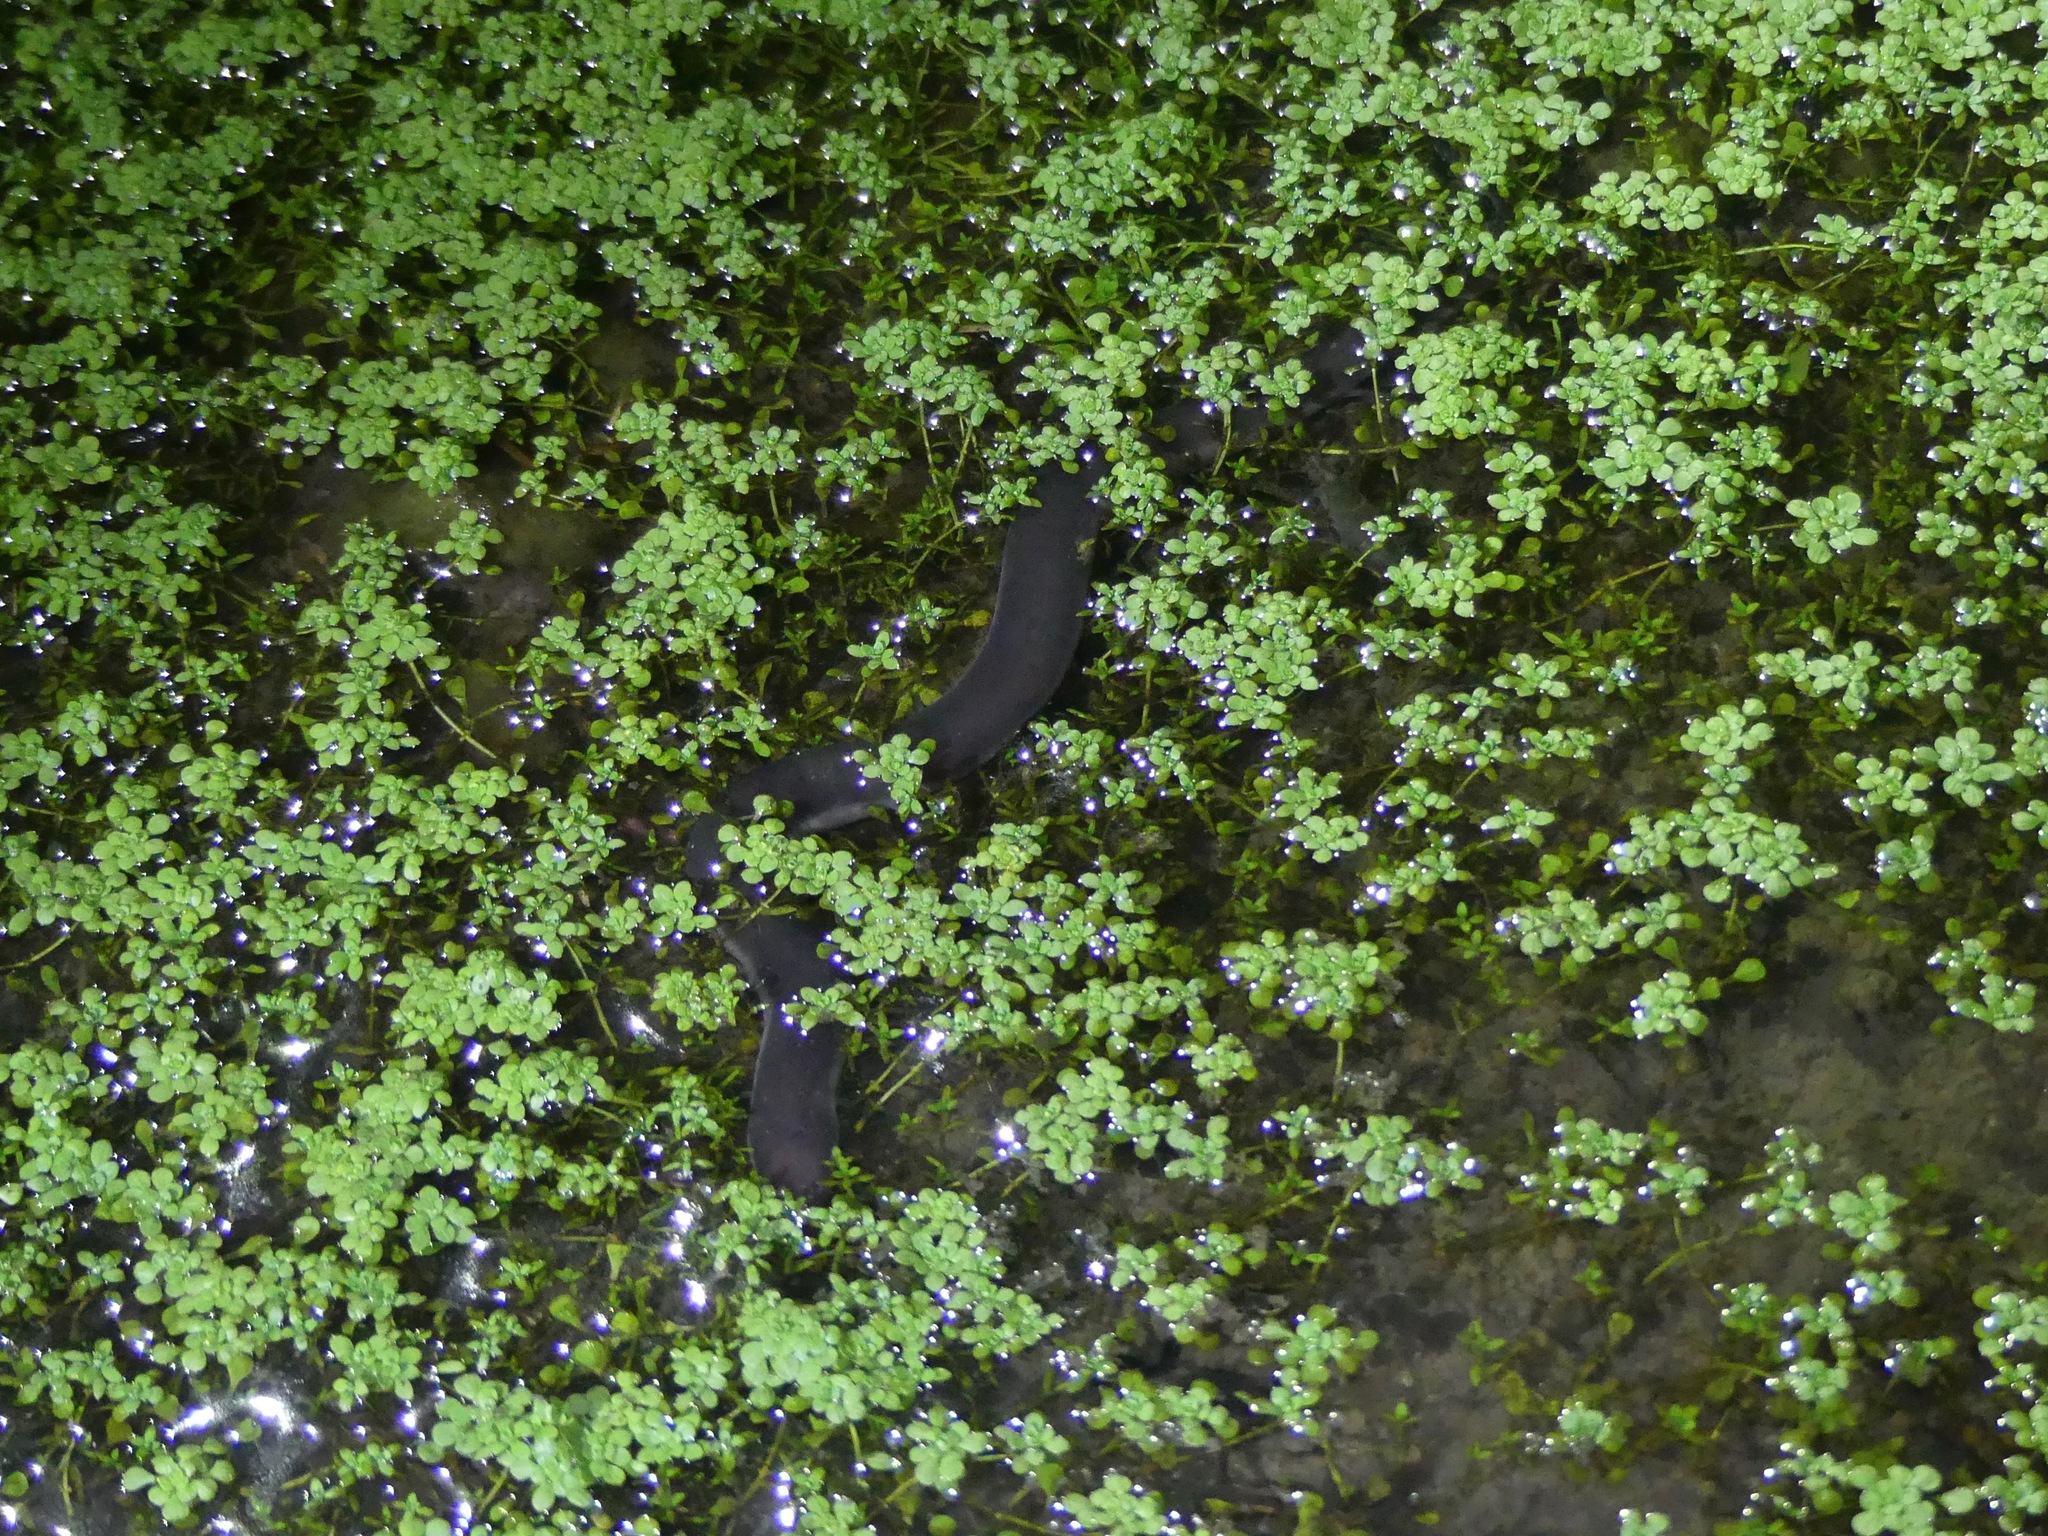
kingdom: Animalia
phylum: Chordata
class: Amphibia
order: Caudata
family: Amphiumidae
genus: Amphiuma
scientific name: Amphiuma tridactylum
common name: Three-toed amphiuma
